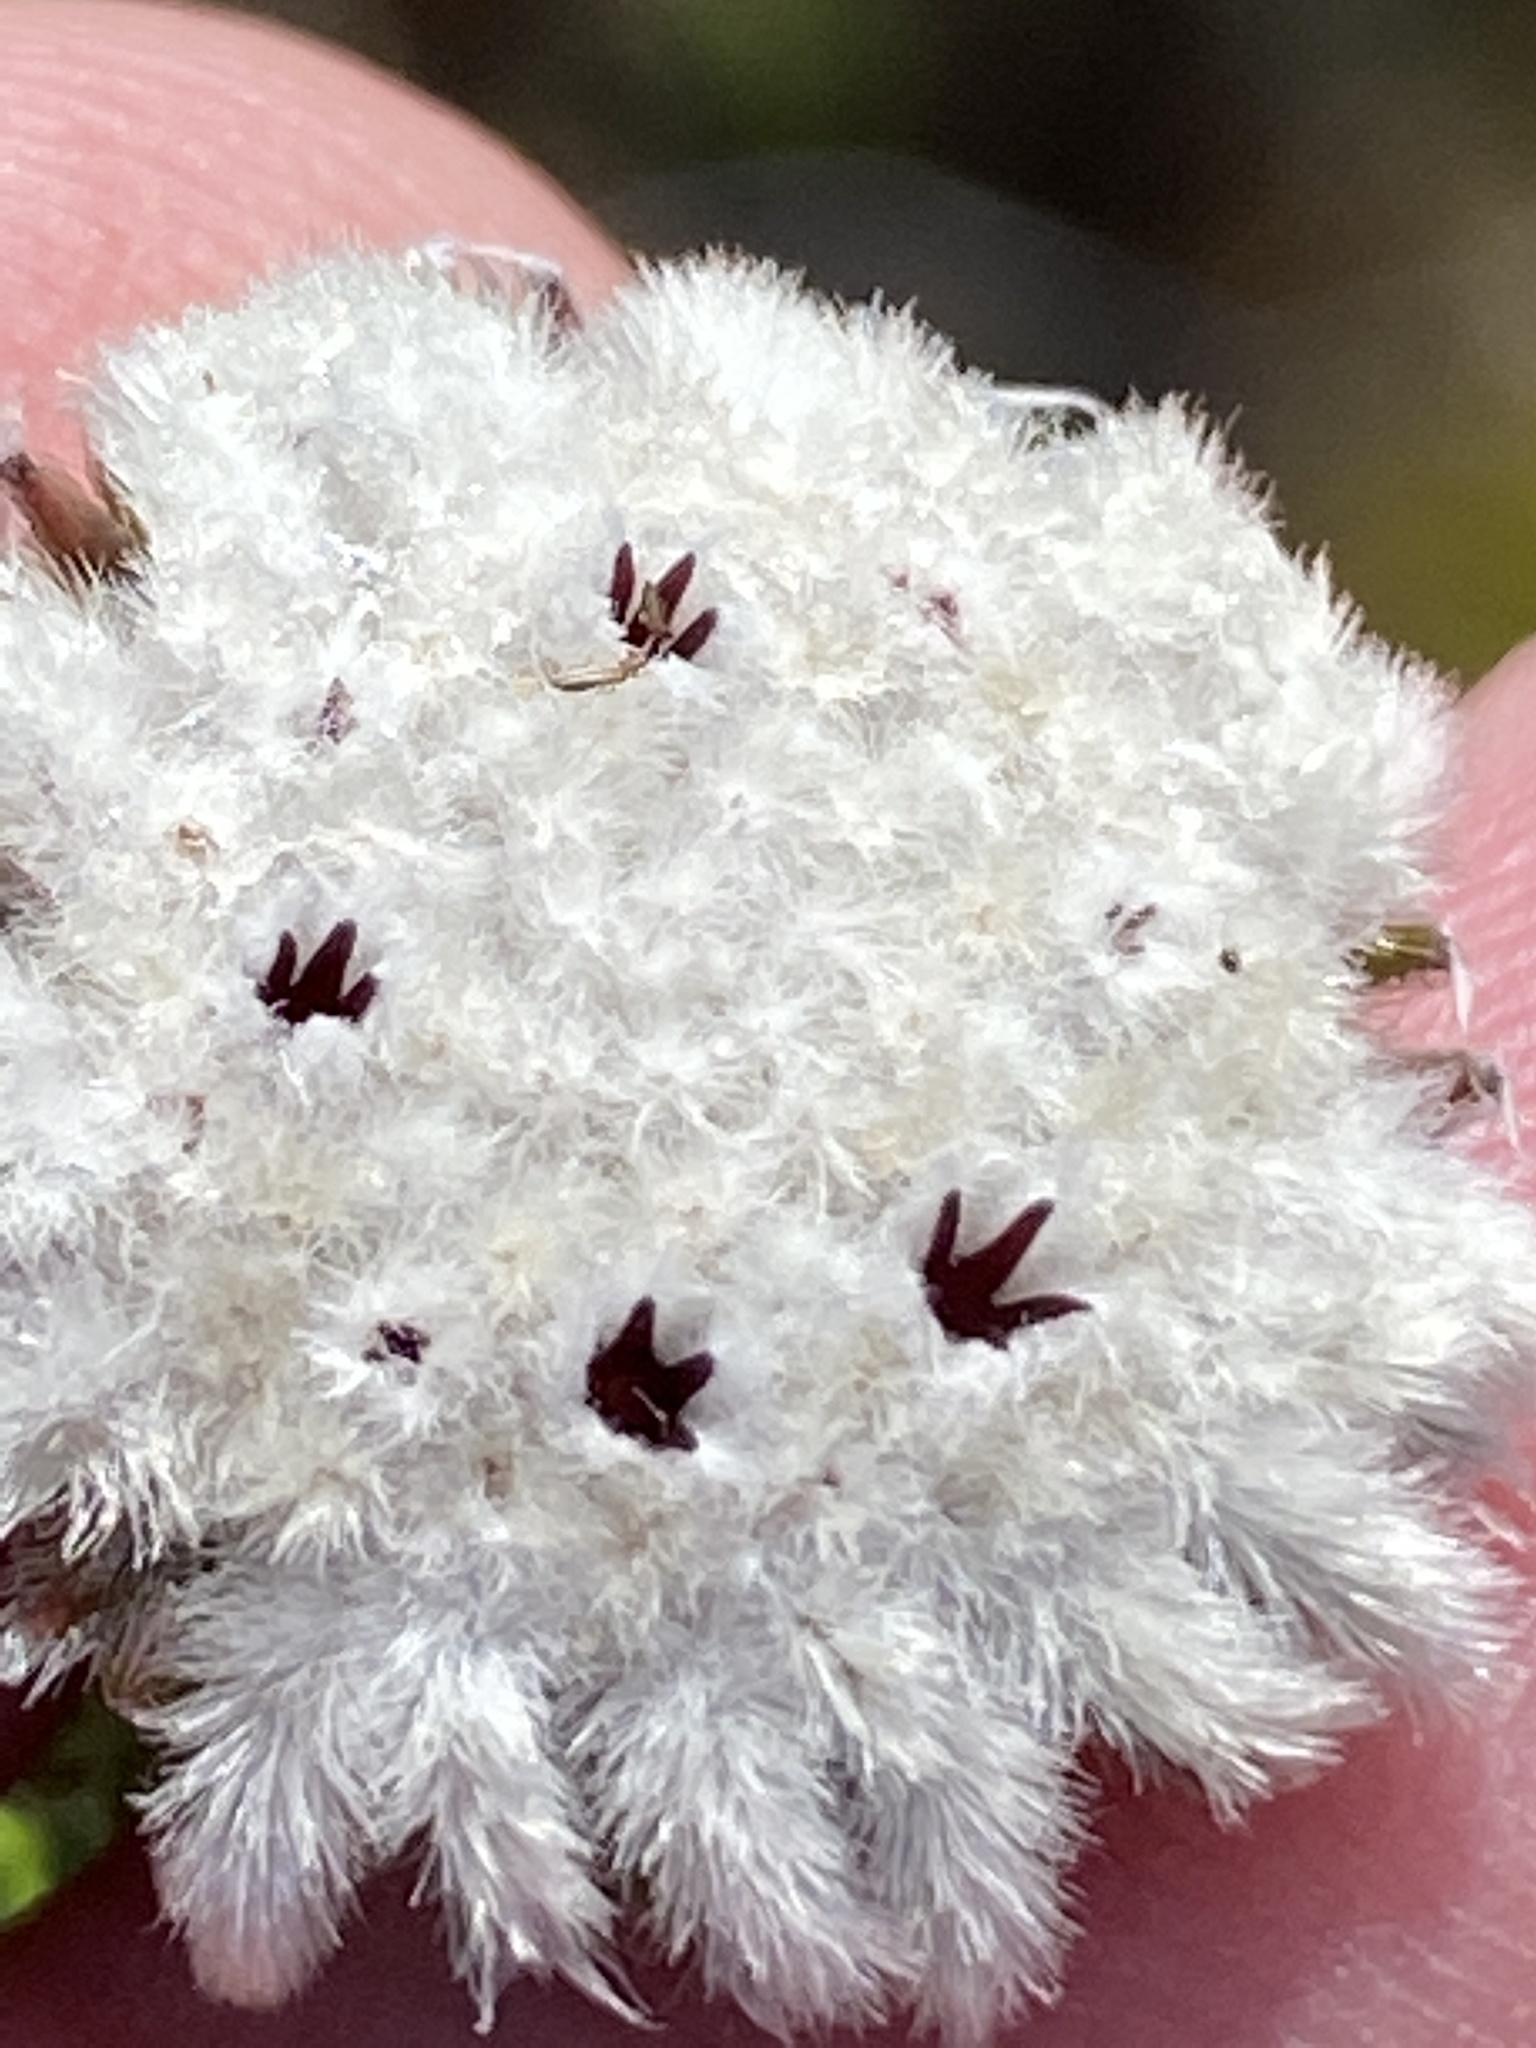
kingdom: Plantae
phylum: Tracheophyta
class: Magnoliopsida
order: Rosales
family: Rhamnaceae
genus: Phylica
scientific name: Phylica curvifolia
